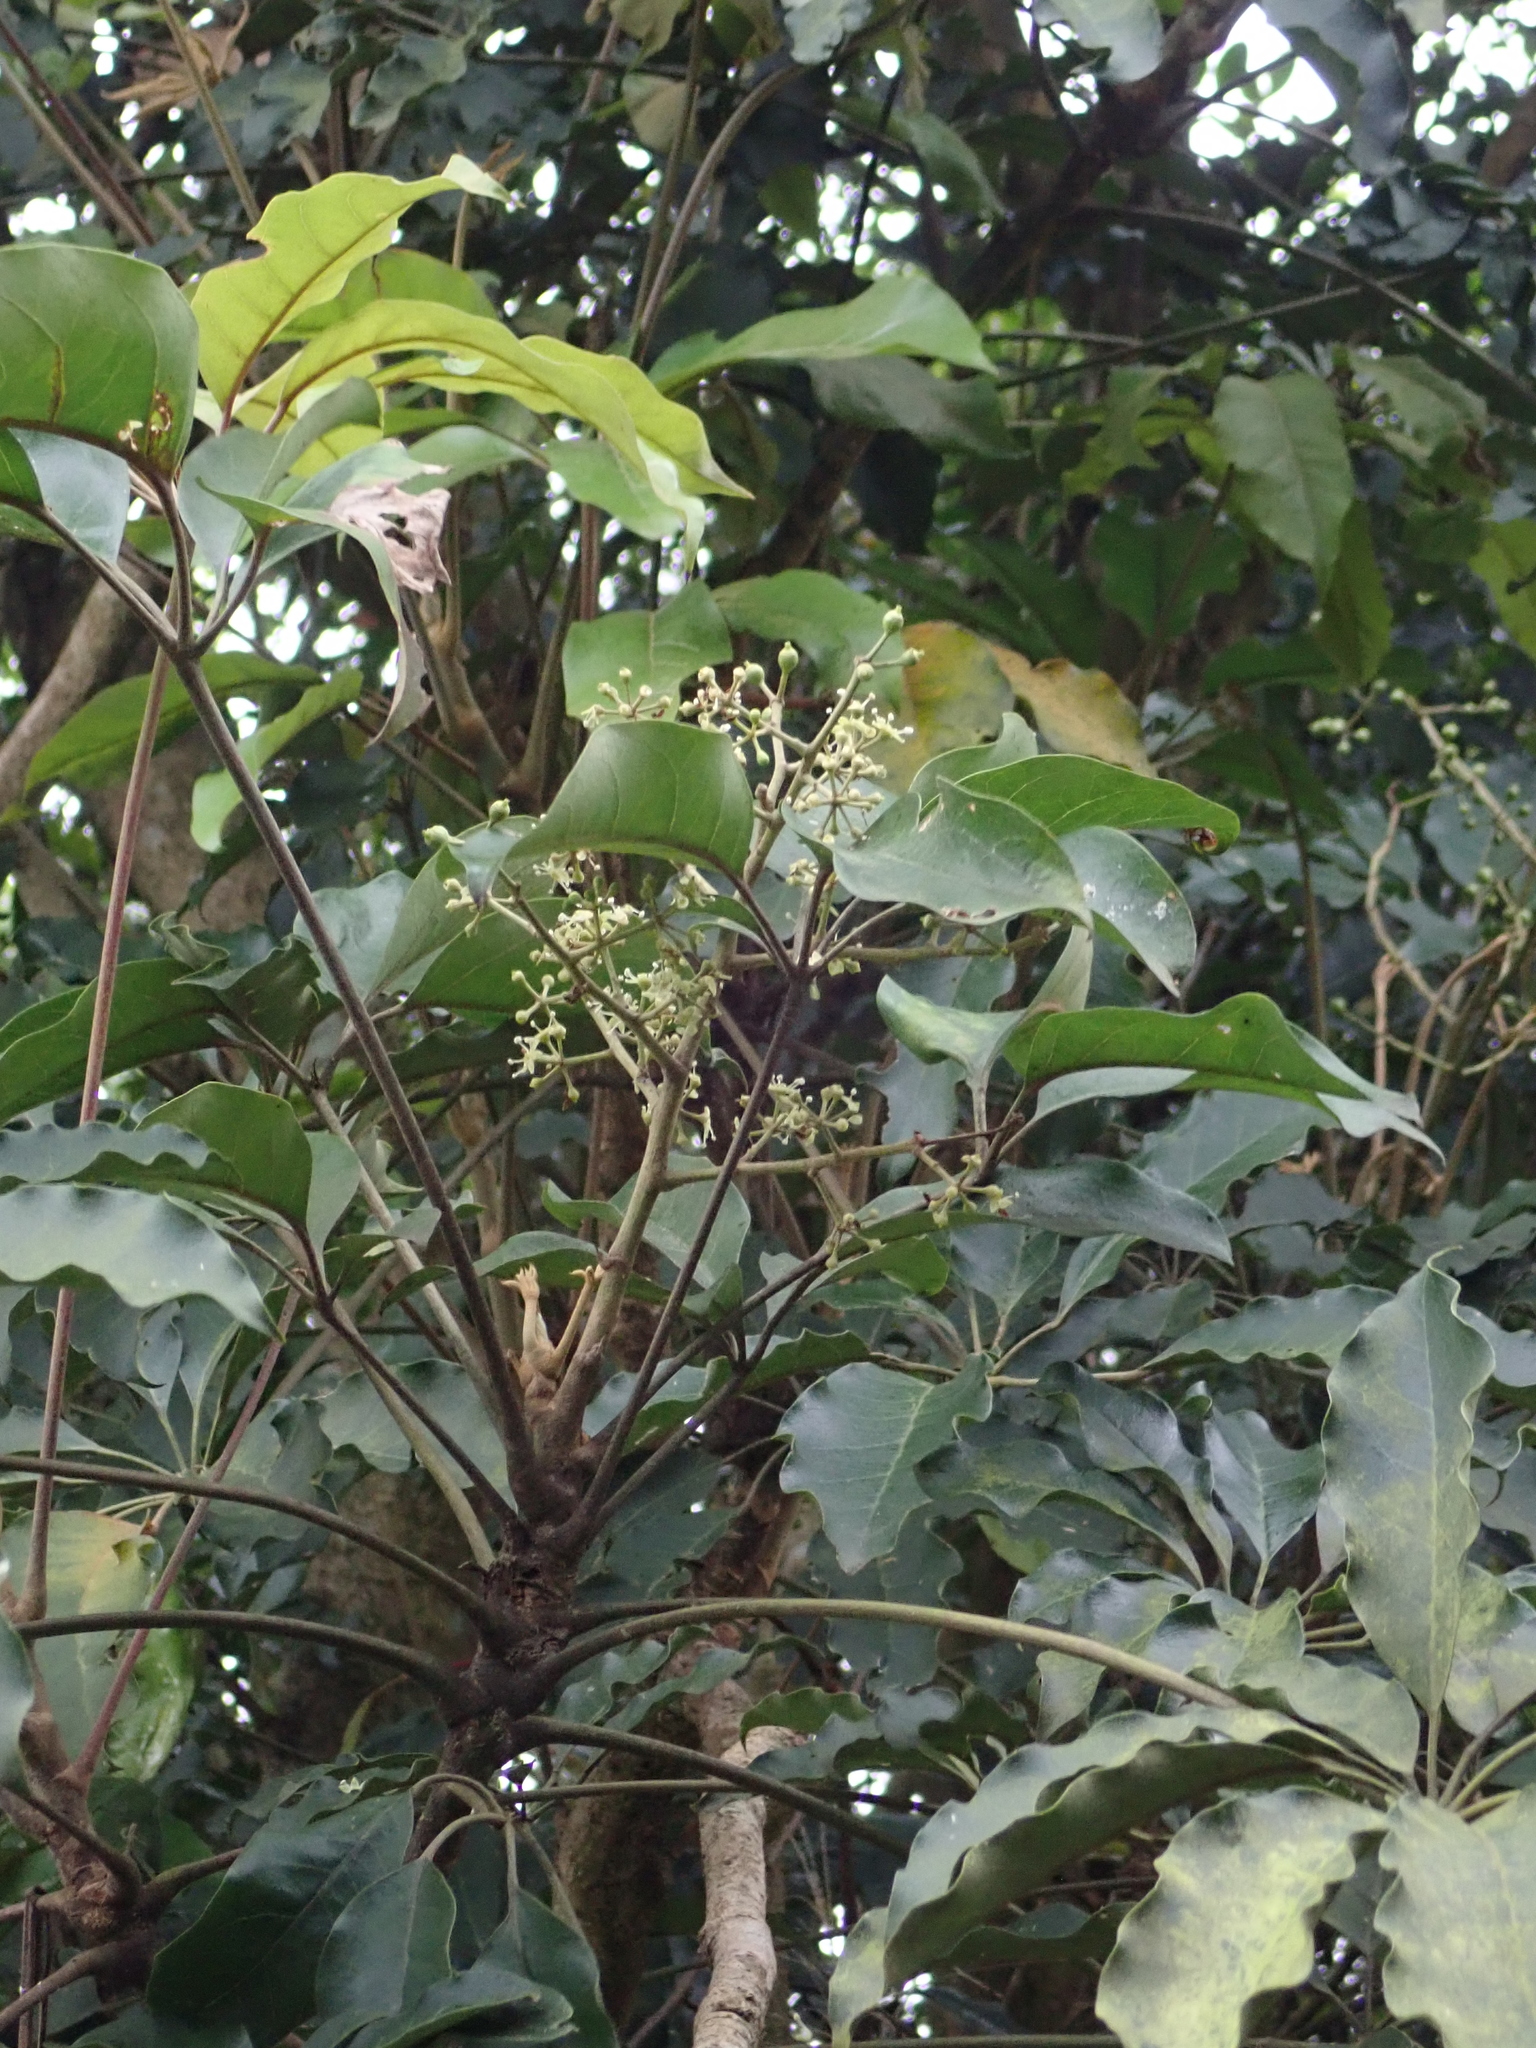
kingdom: Plantae
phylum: Tracheophyta
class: Magnoliopsida
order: Apiales
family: Araliaceae
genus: Heptapleurum
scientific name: Heptapleurum heptaphyllum
